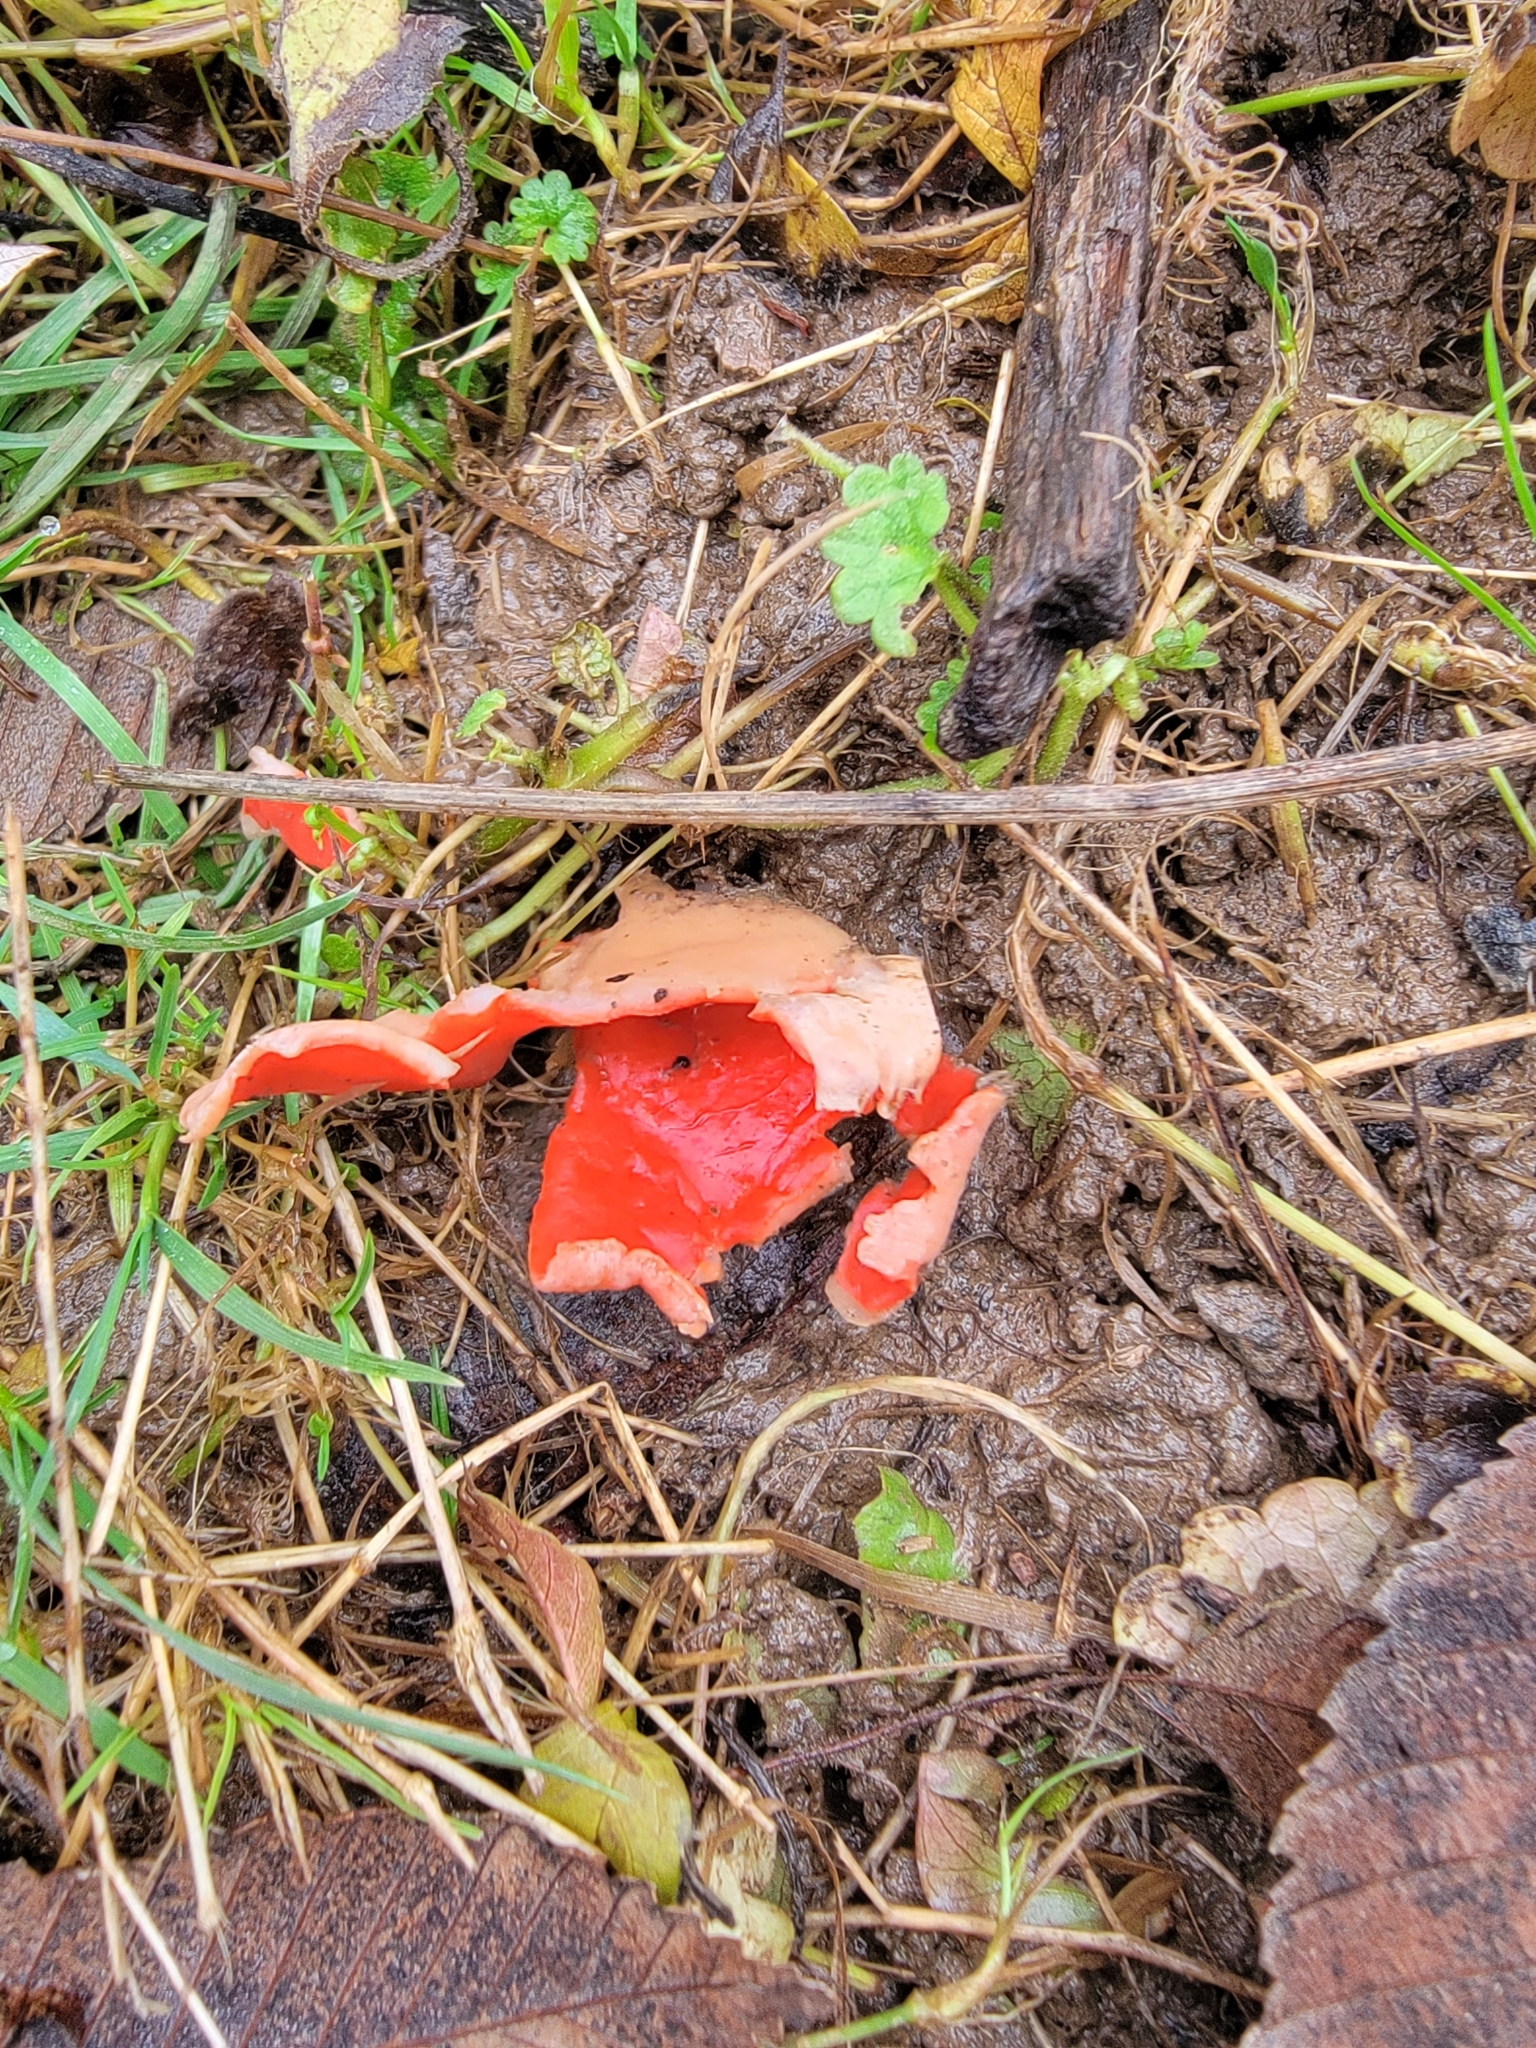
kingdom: Fungi
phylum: Ascomycota
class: Pezizomycetes
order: Pezizales
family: Sarcoscyphaceae
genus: Sarcoscypha
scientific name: Sarcoscypha austriaca
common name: Scarlet elfcup
